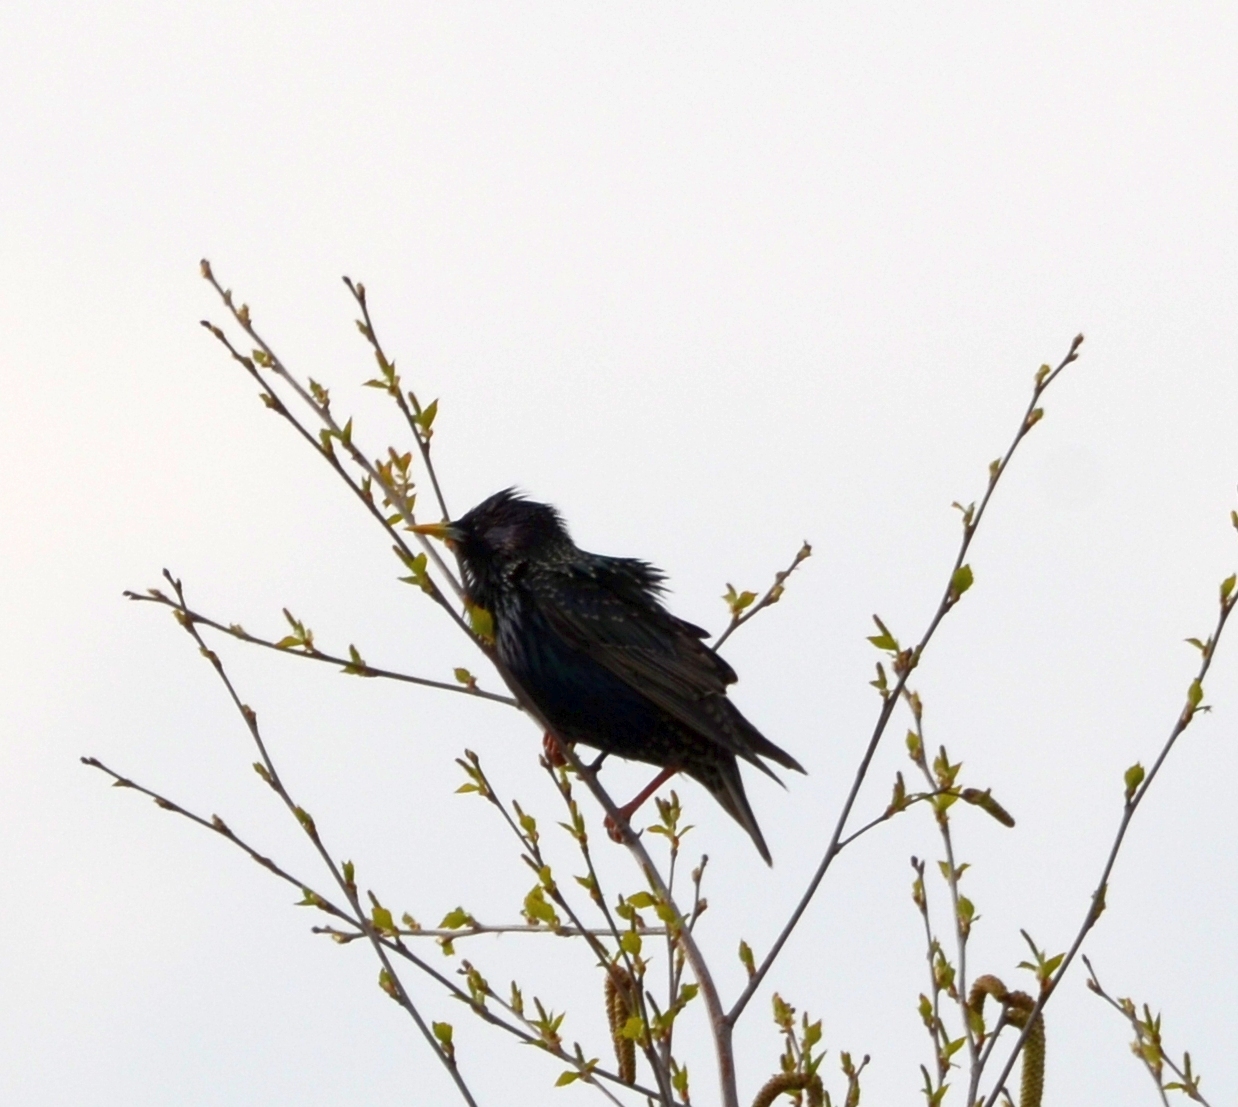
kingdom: Animalia
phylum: Chordata
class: Aves
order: Passeriformes
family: Sturnidae
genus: Sturnus
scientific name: Sturnus vulgaris
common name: Common starling
